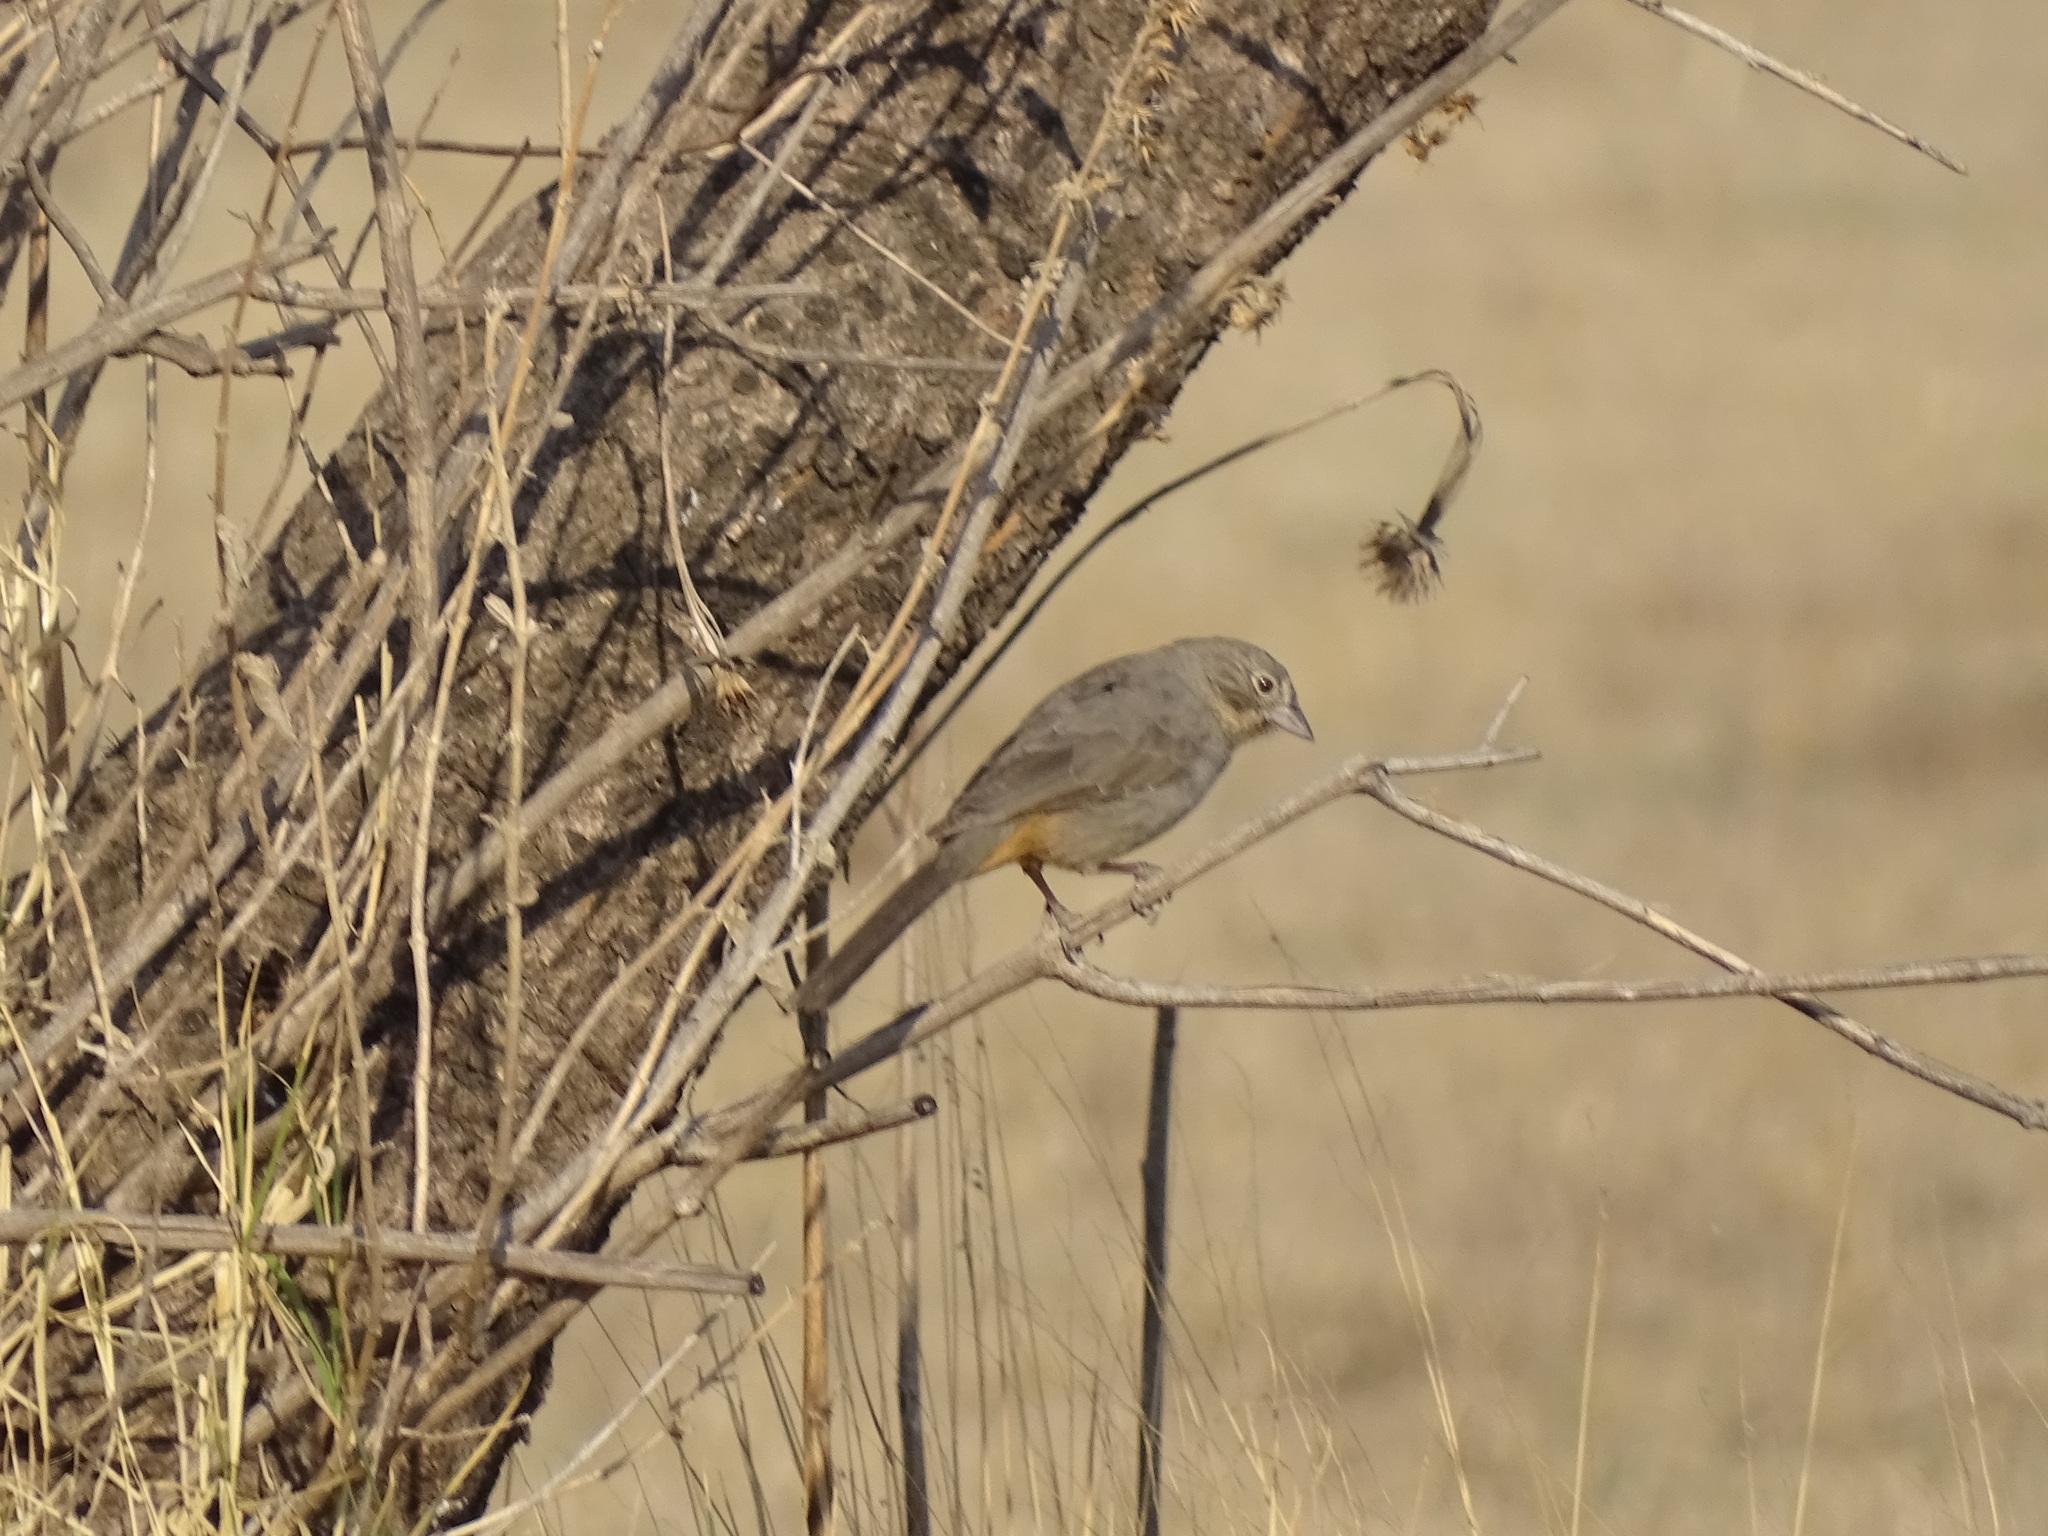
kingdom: Animalia
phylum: Chordata
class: Aves
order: Passeriformes
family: Passerellidae
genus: Melozone
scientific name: Melozone fusca
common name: Canyon towhee
